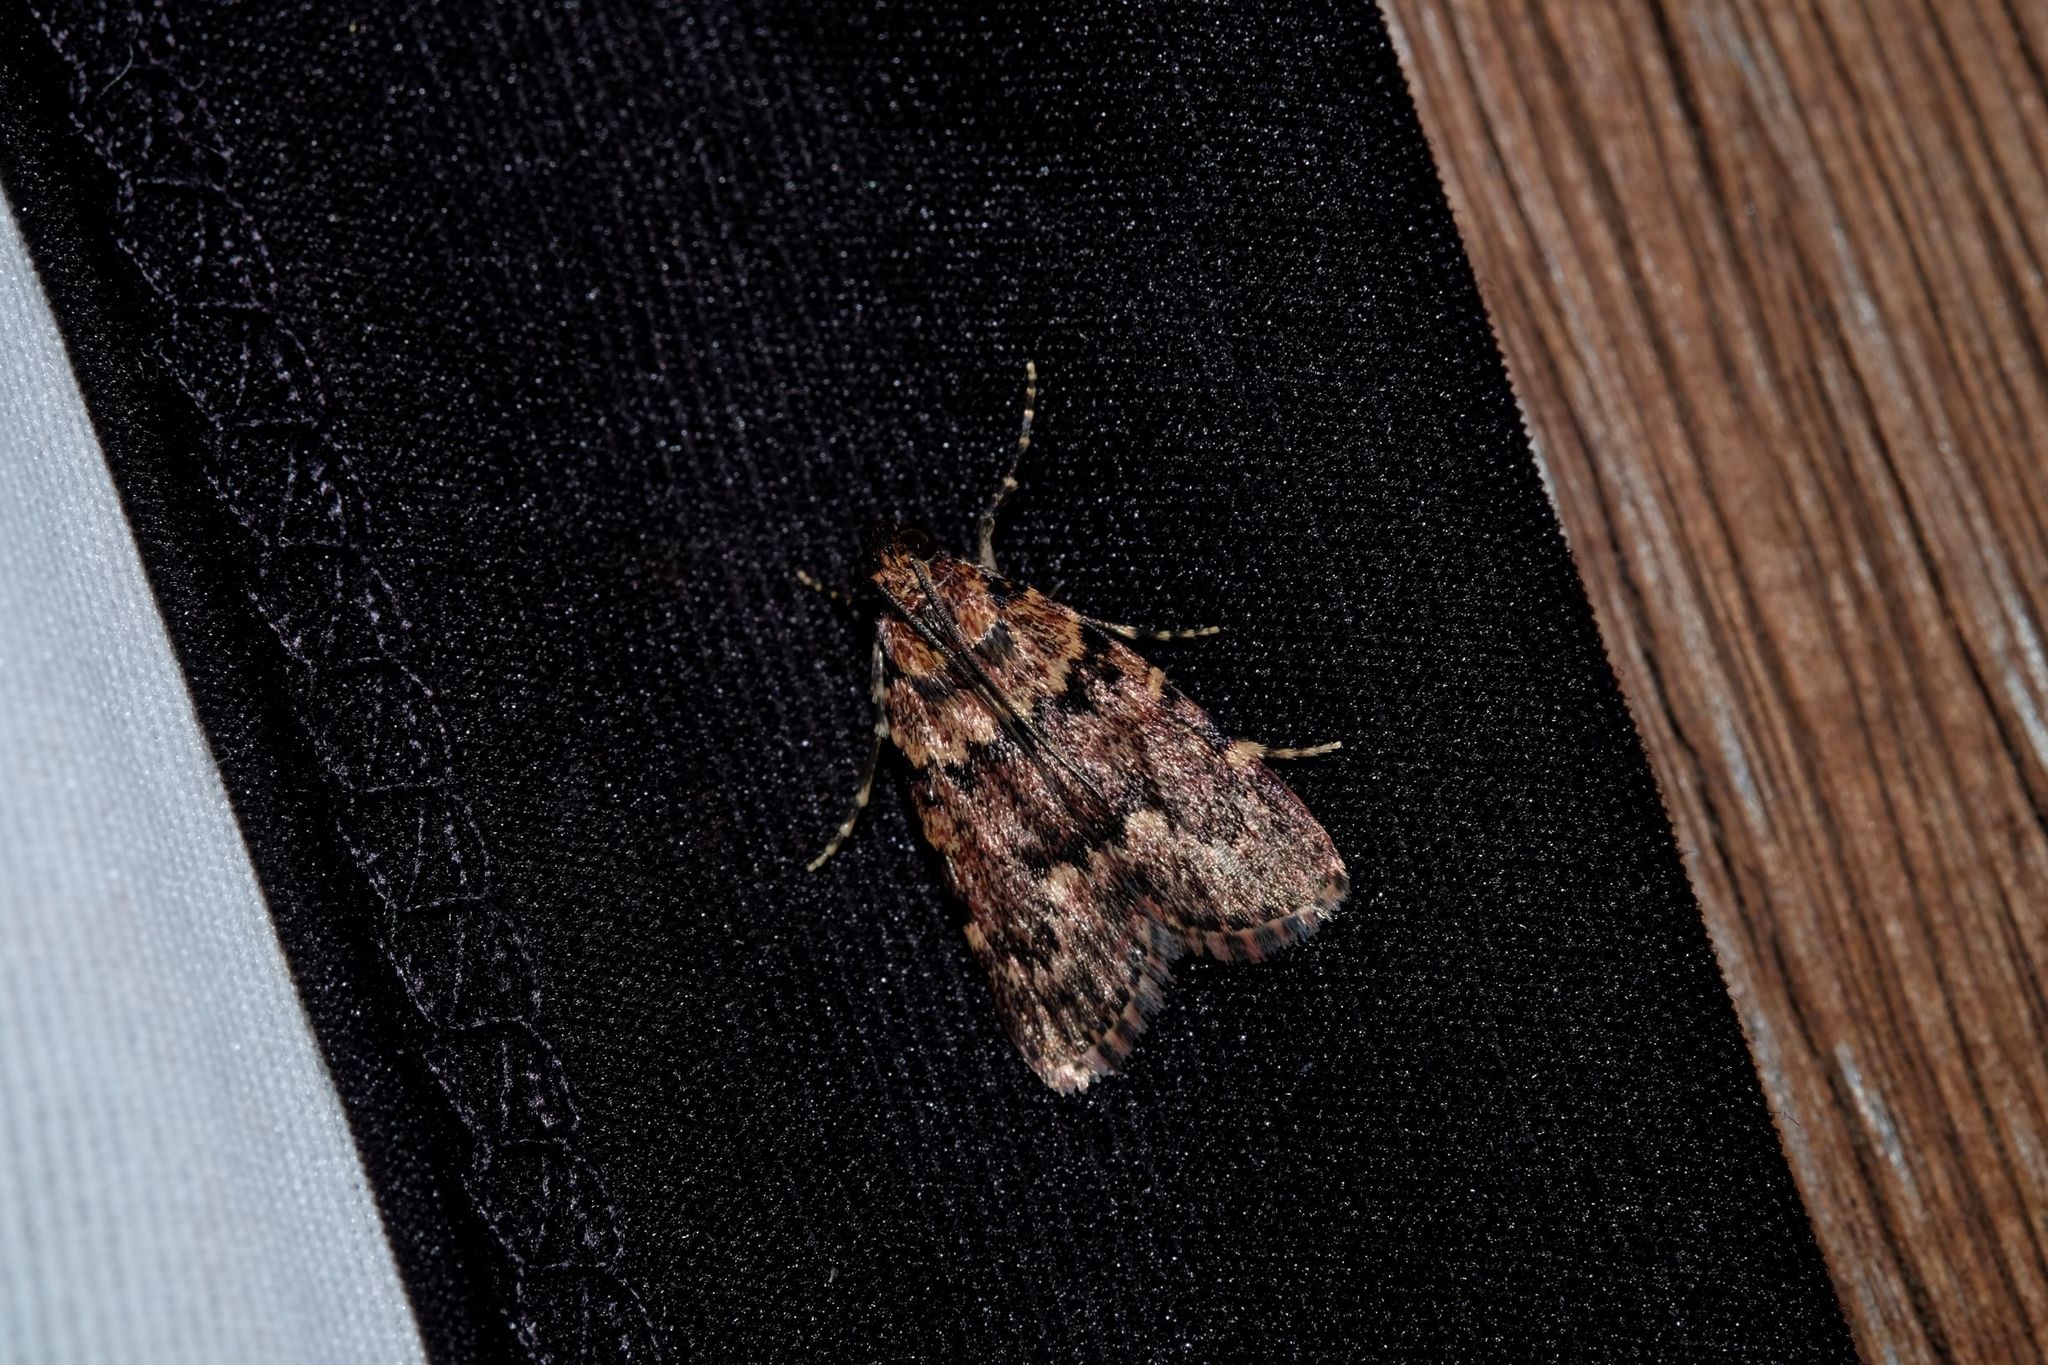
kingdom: Animalia
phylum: Arthropoda
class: Insecta
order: Lepidoptera
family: Pyralidae
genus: Mimaglossa
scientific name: Mimaglossa nauplialis
